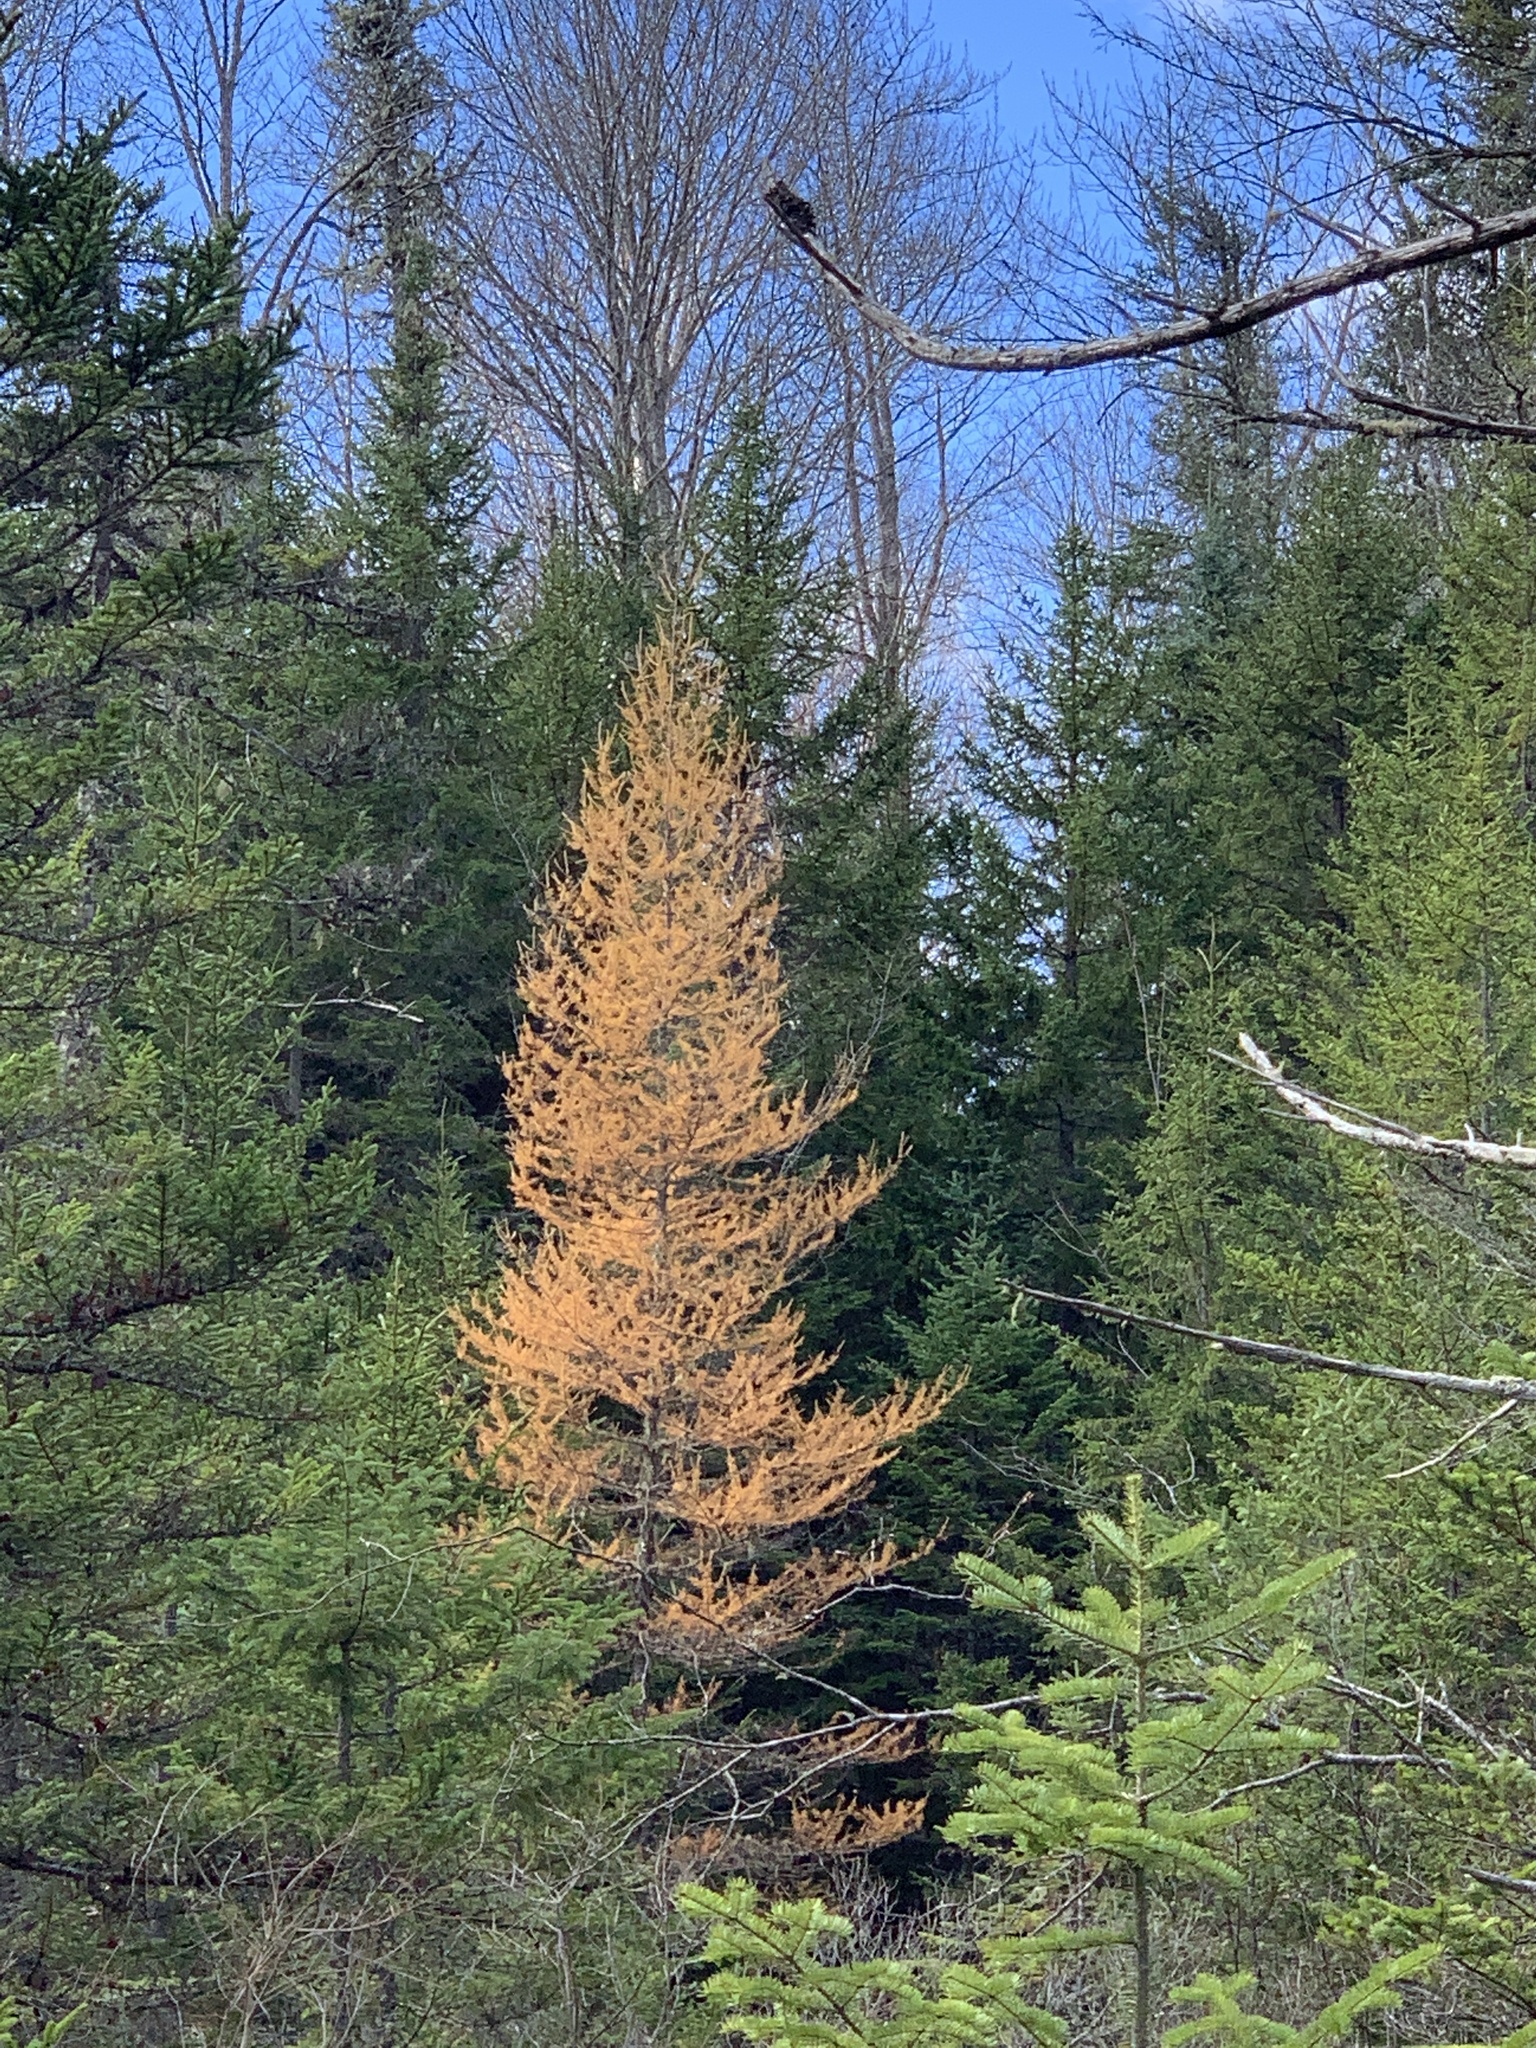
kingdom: Plantae
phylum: Tracheophyta
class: Pinopsida
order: Pinales
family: Pinaceae
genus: Larix
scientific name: Larix laricina
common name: American larch
